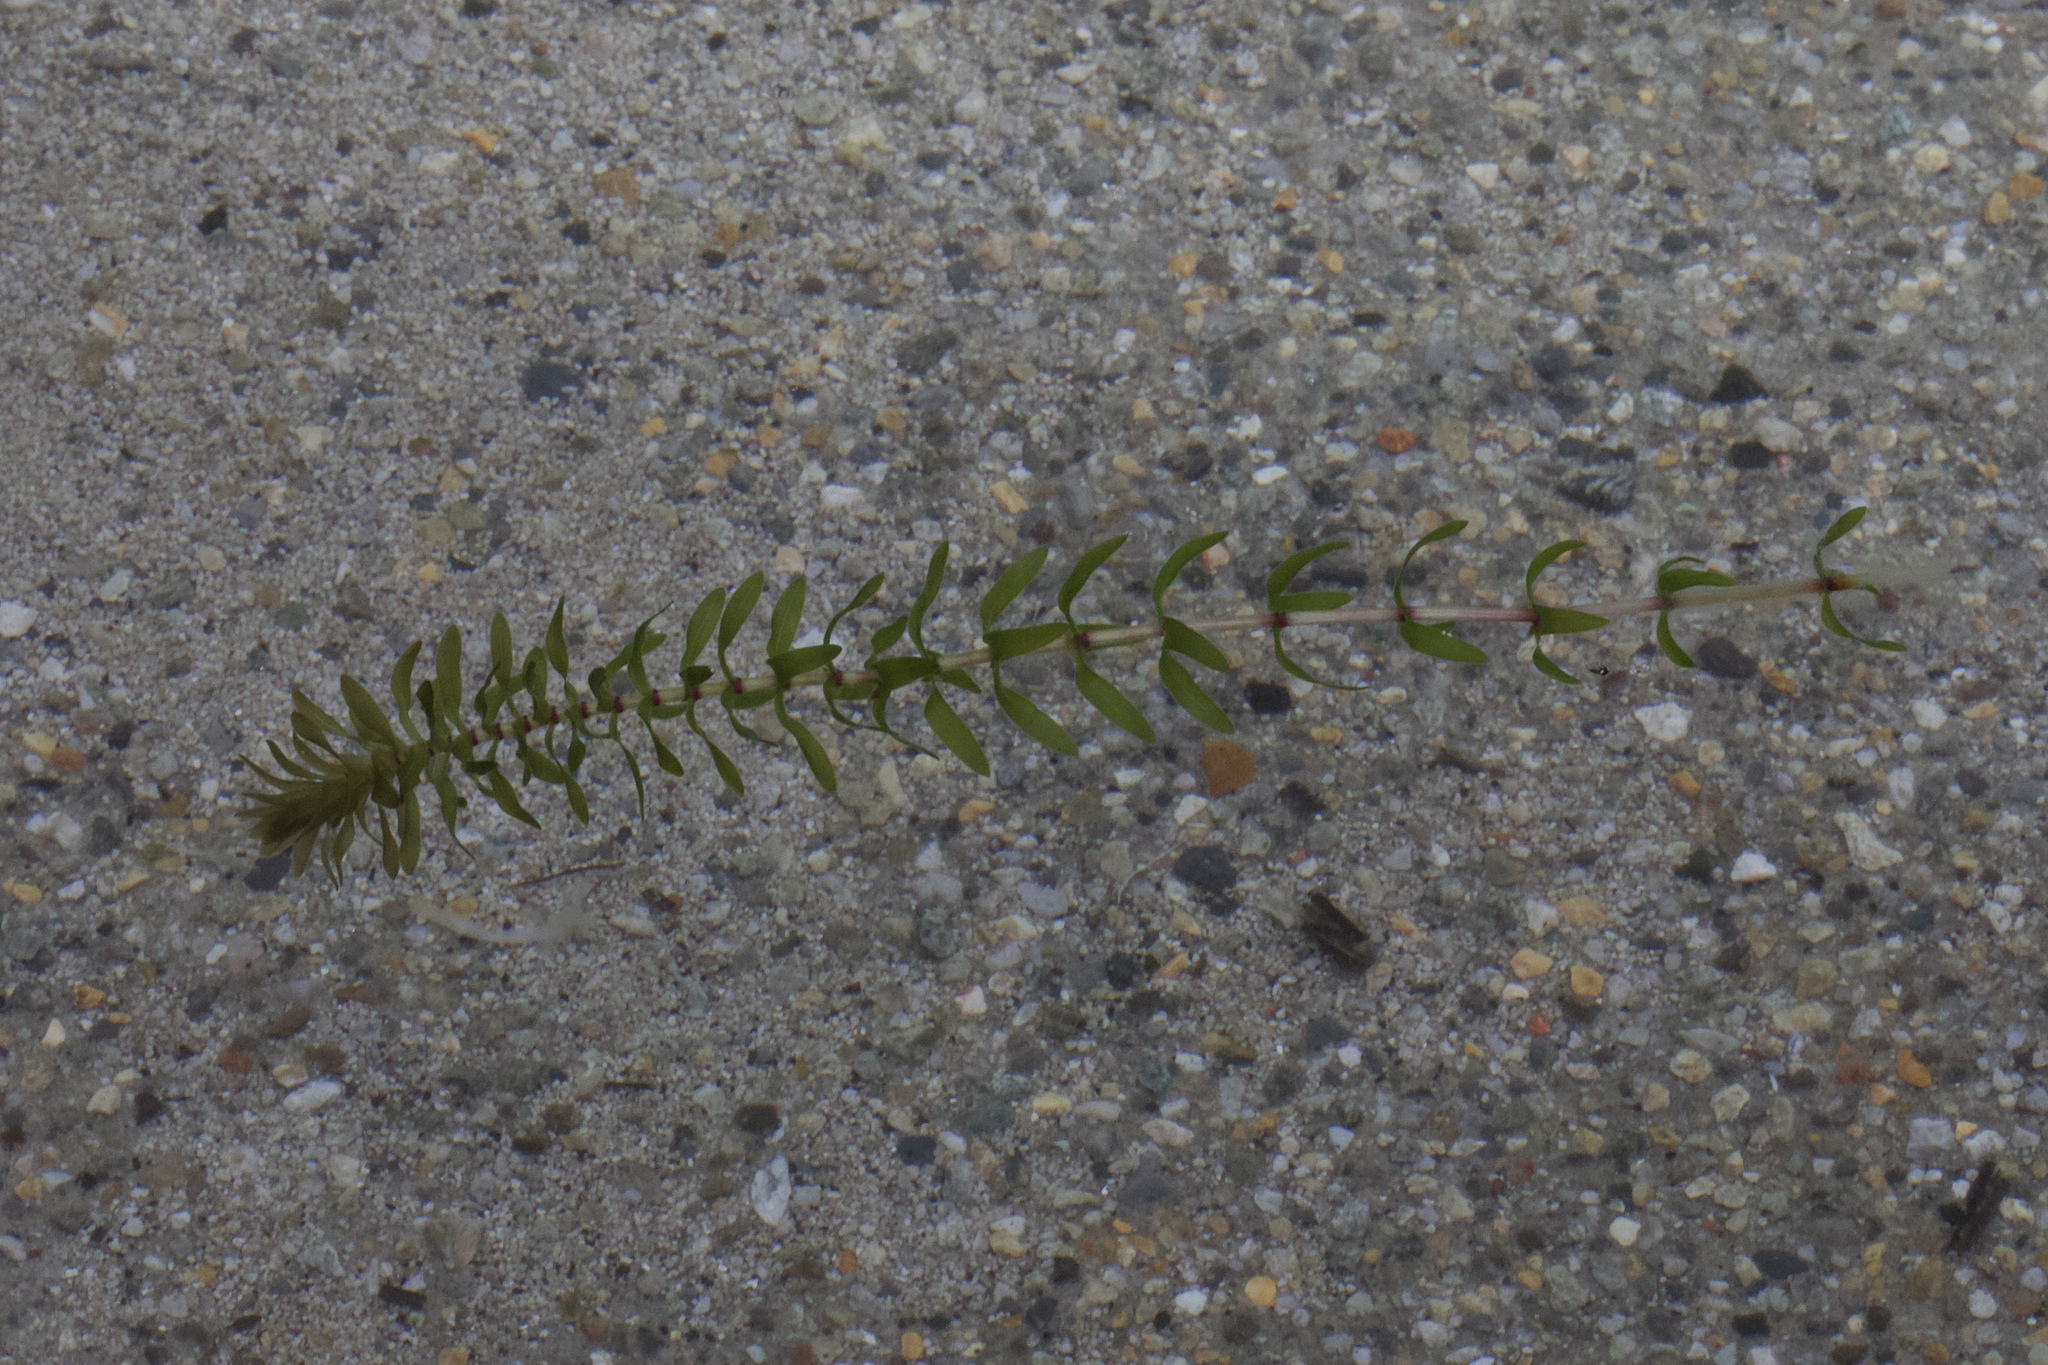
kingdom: Plantae
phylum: Tracheophyta
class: Liliopsida
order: Alismatales
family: Hydrocharitaceae
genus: Elodea
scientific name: Elodea canadensis
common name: Canadian waterweed
